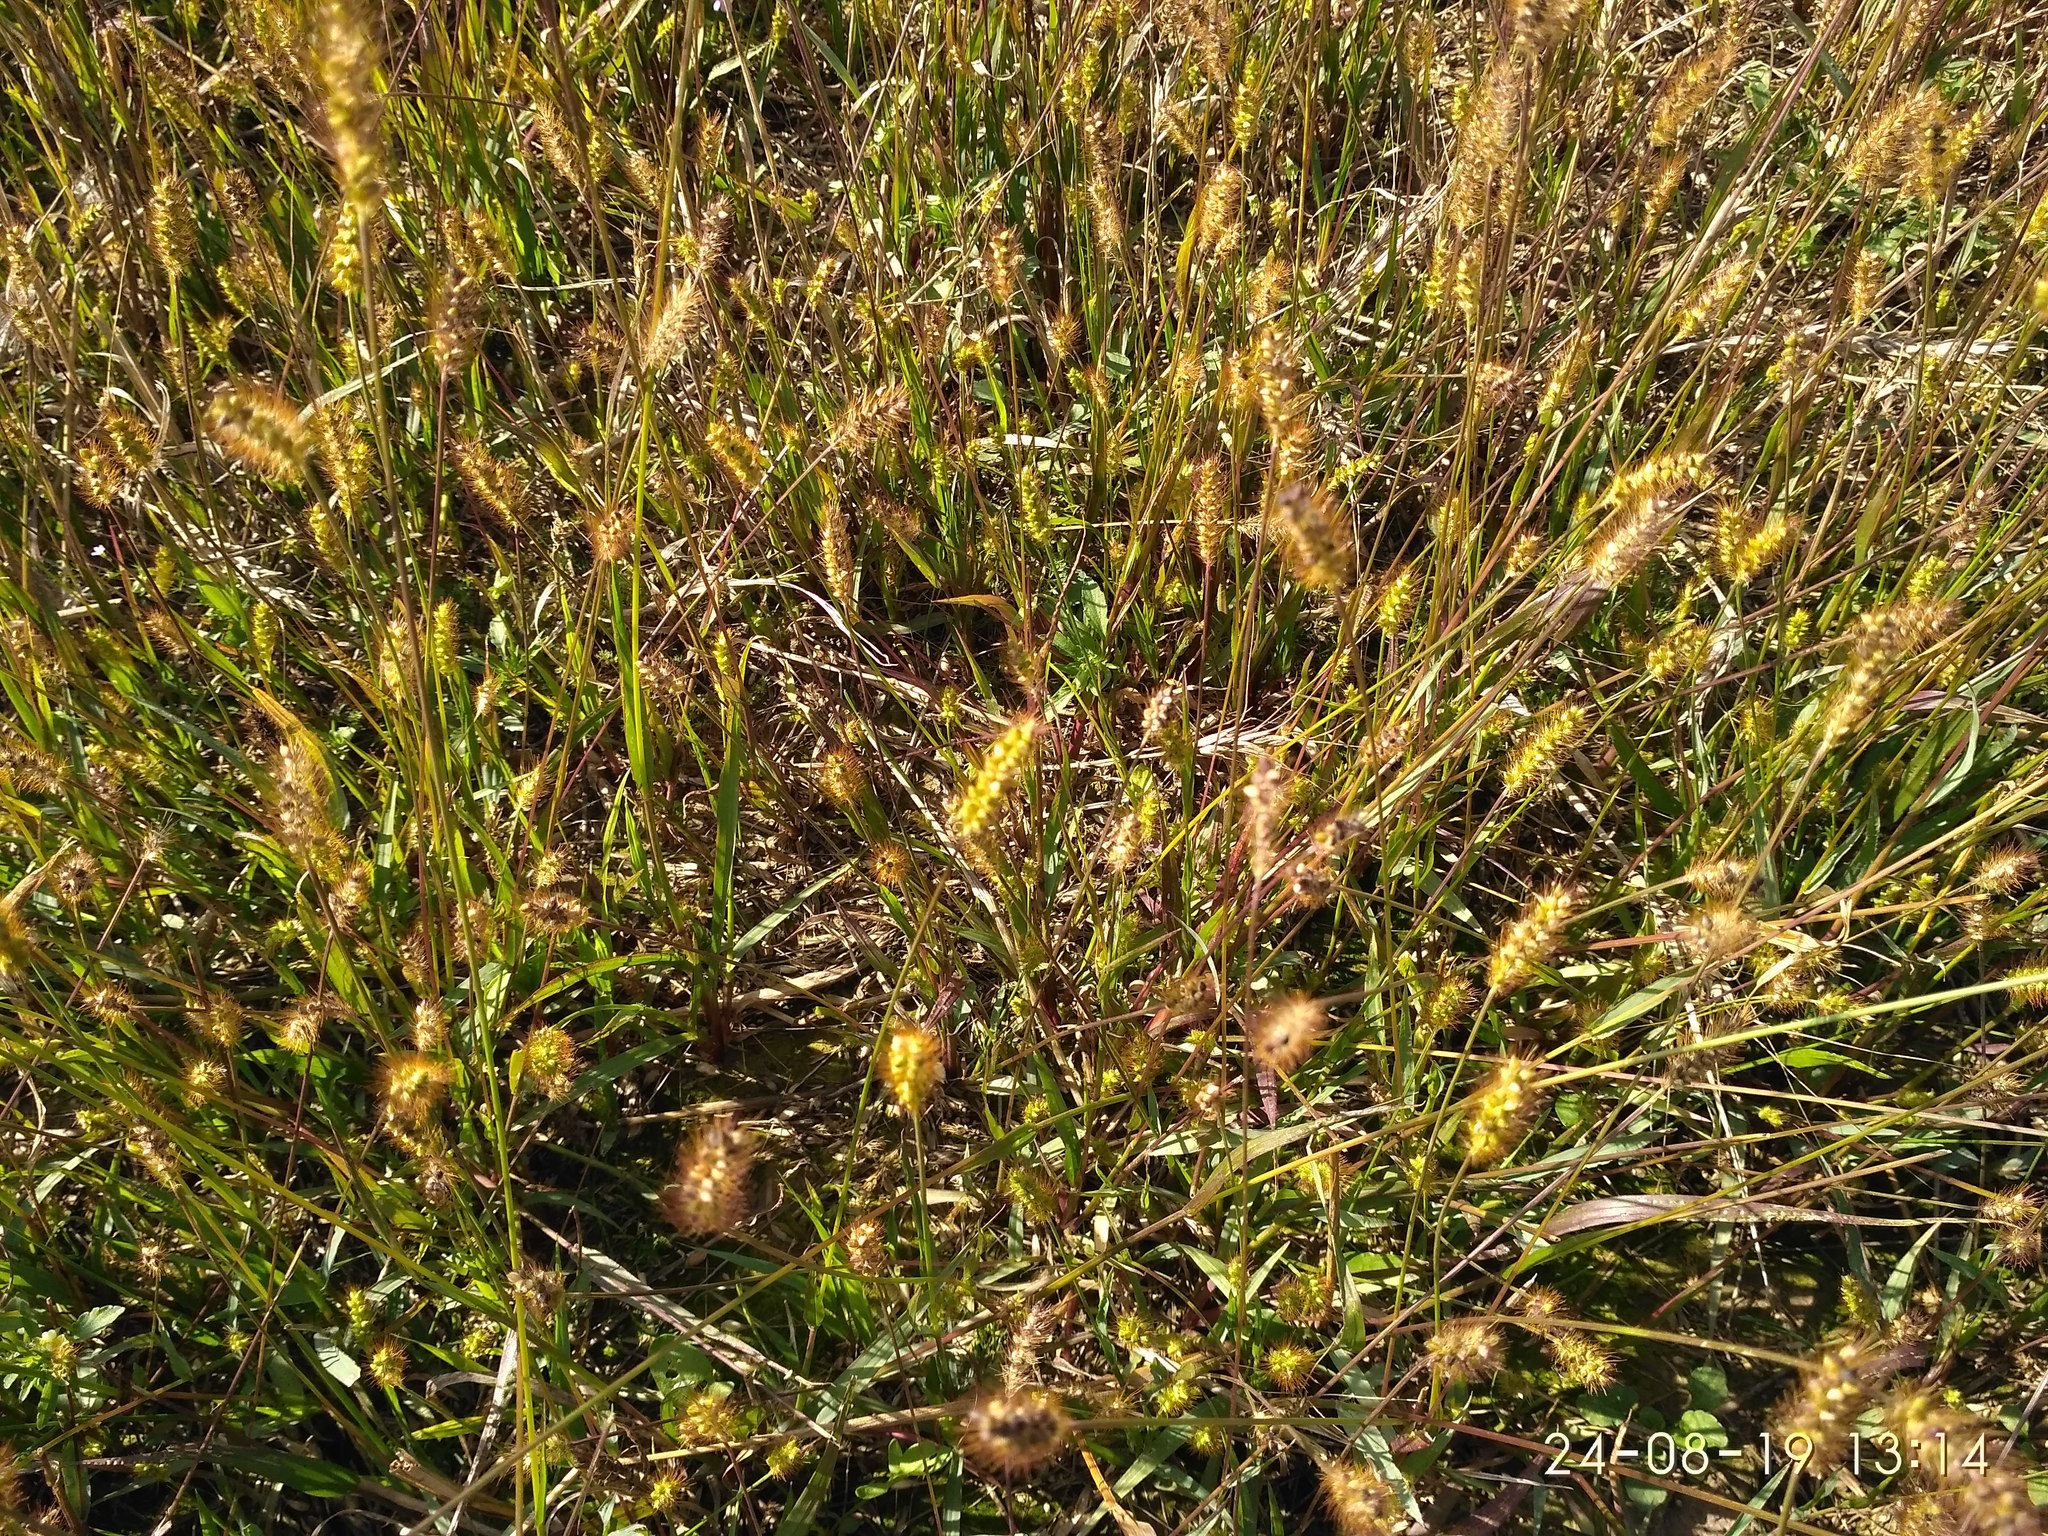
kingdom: Plantae
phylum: Tracheophyta
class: Liliopsida
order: Poales
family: Poaceae
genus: Setaria
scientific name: Setaria pumila
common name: Yellow bristle-grass
